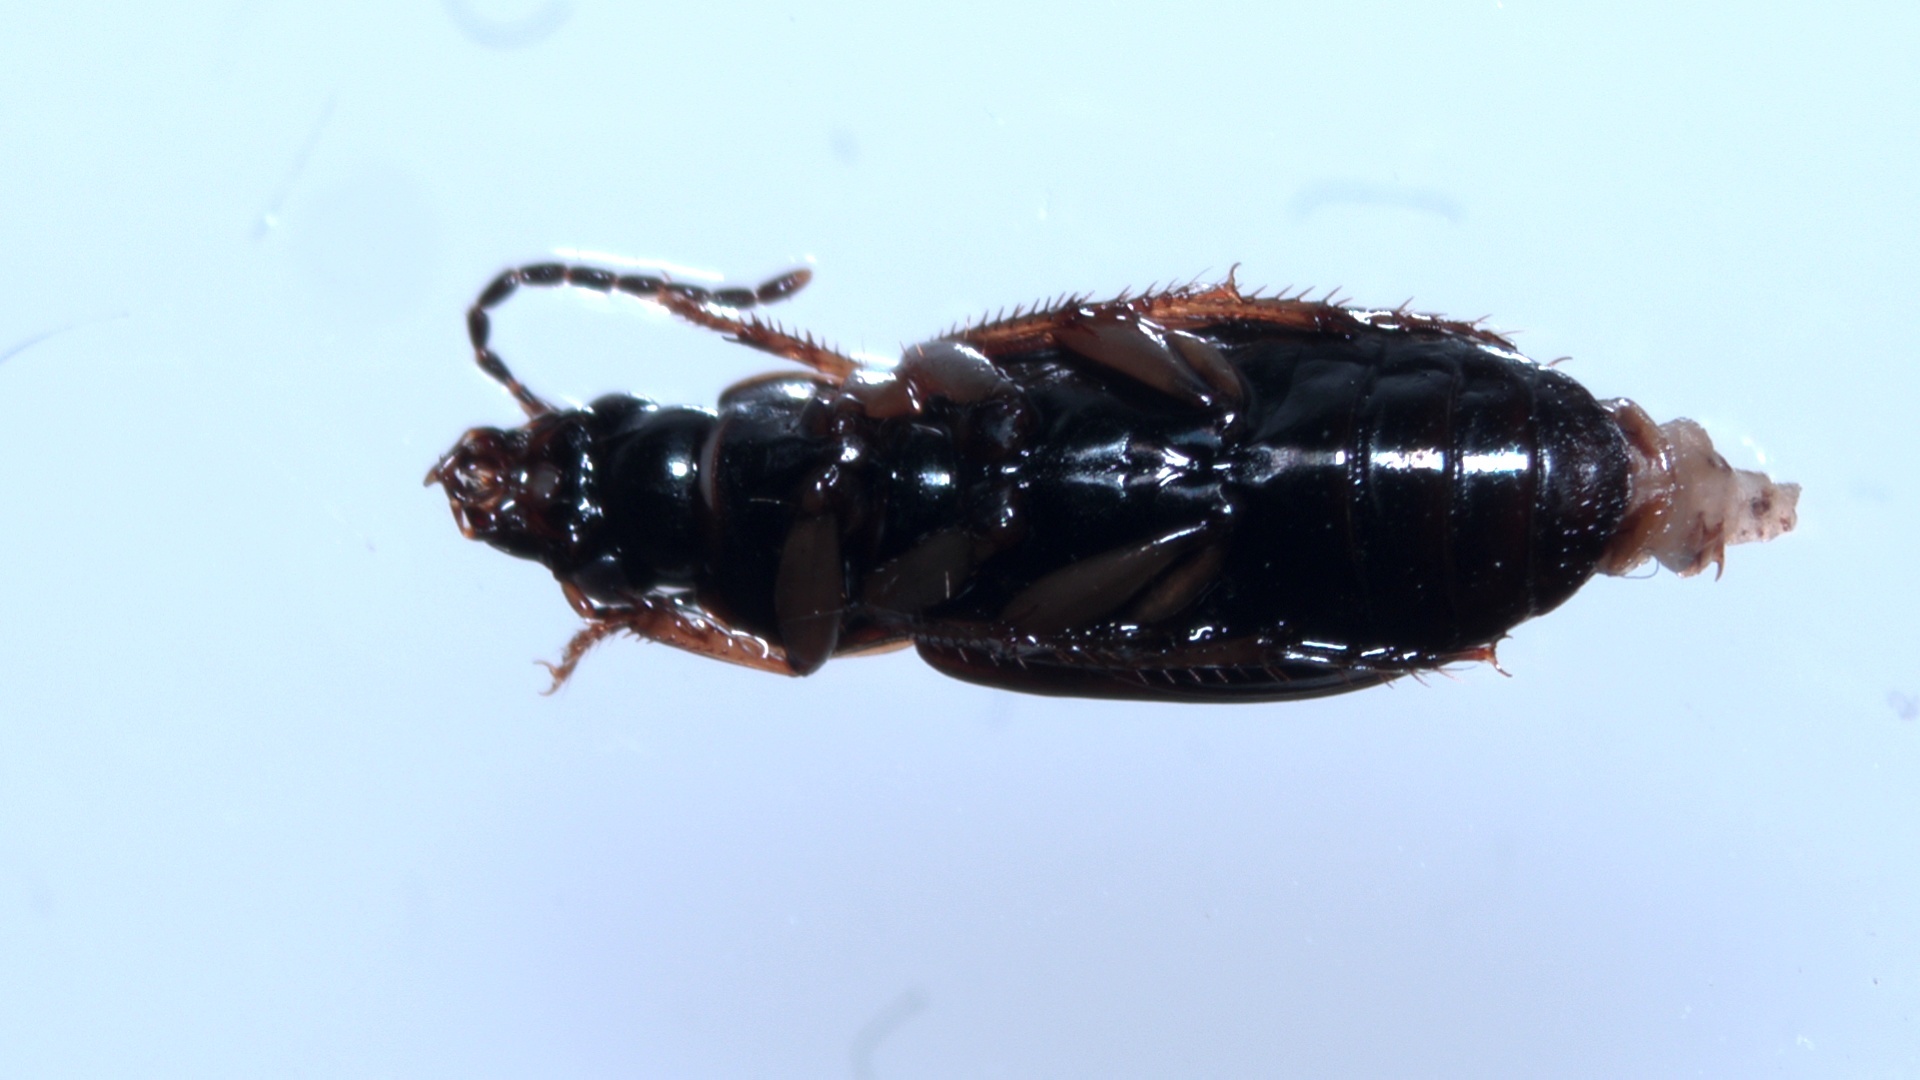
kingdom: Animalia
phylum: Arthropoda
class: Insecta
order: Coleoptera
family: Carabidae
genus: Stenolophus
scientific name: Stenolophus mixtus
